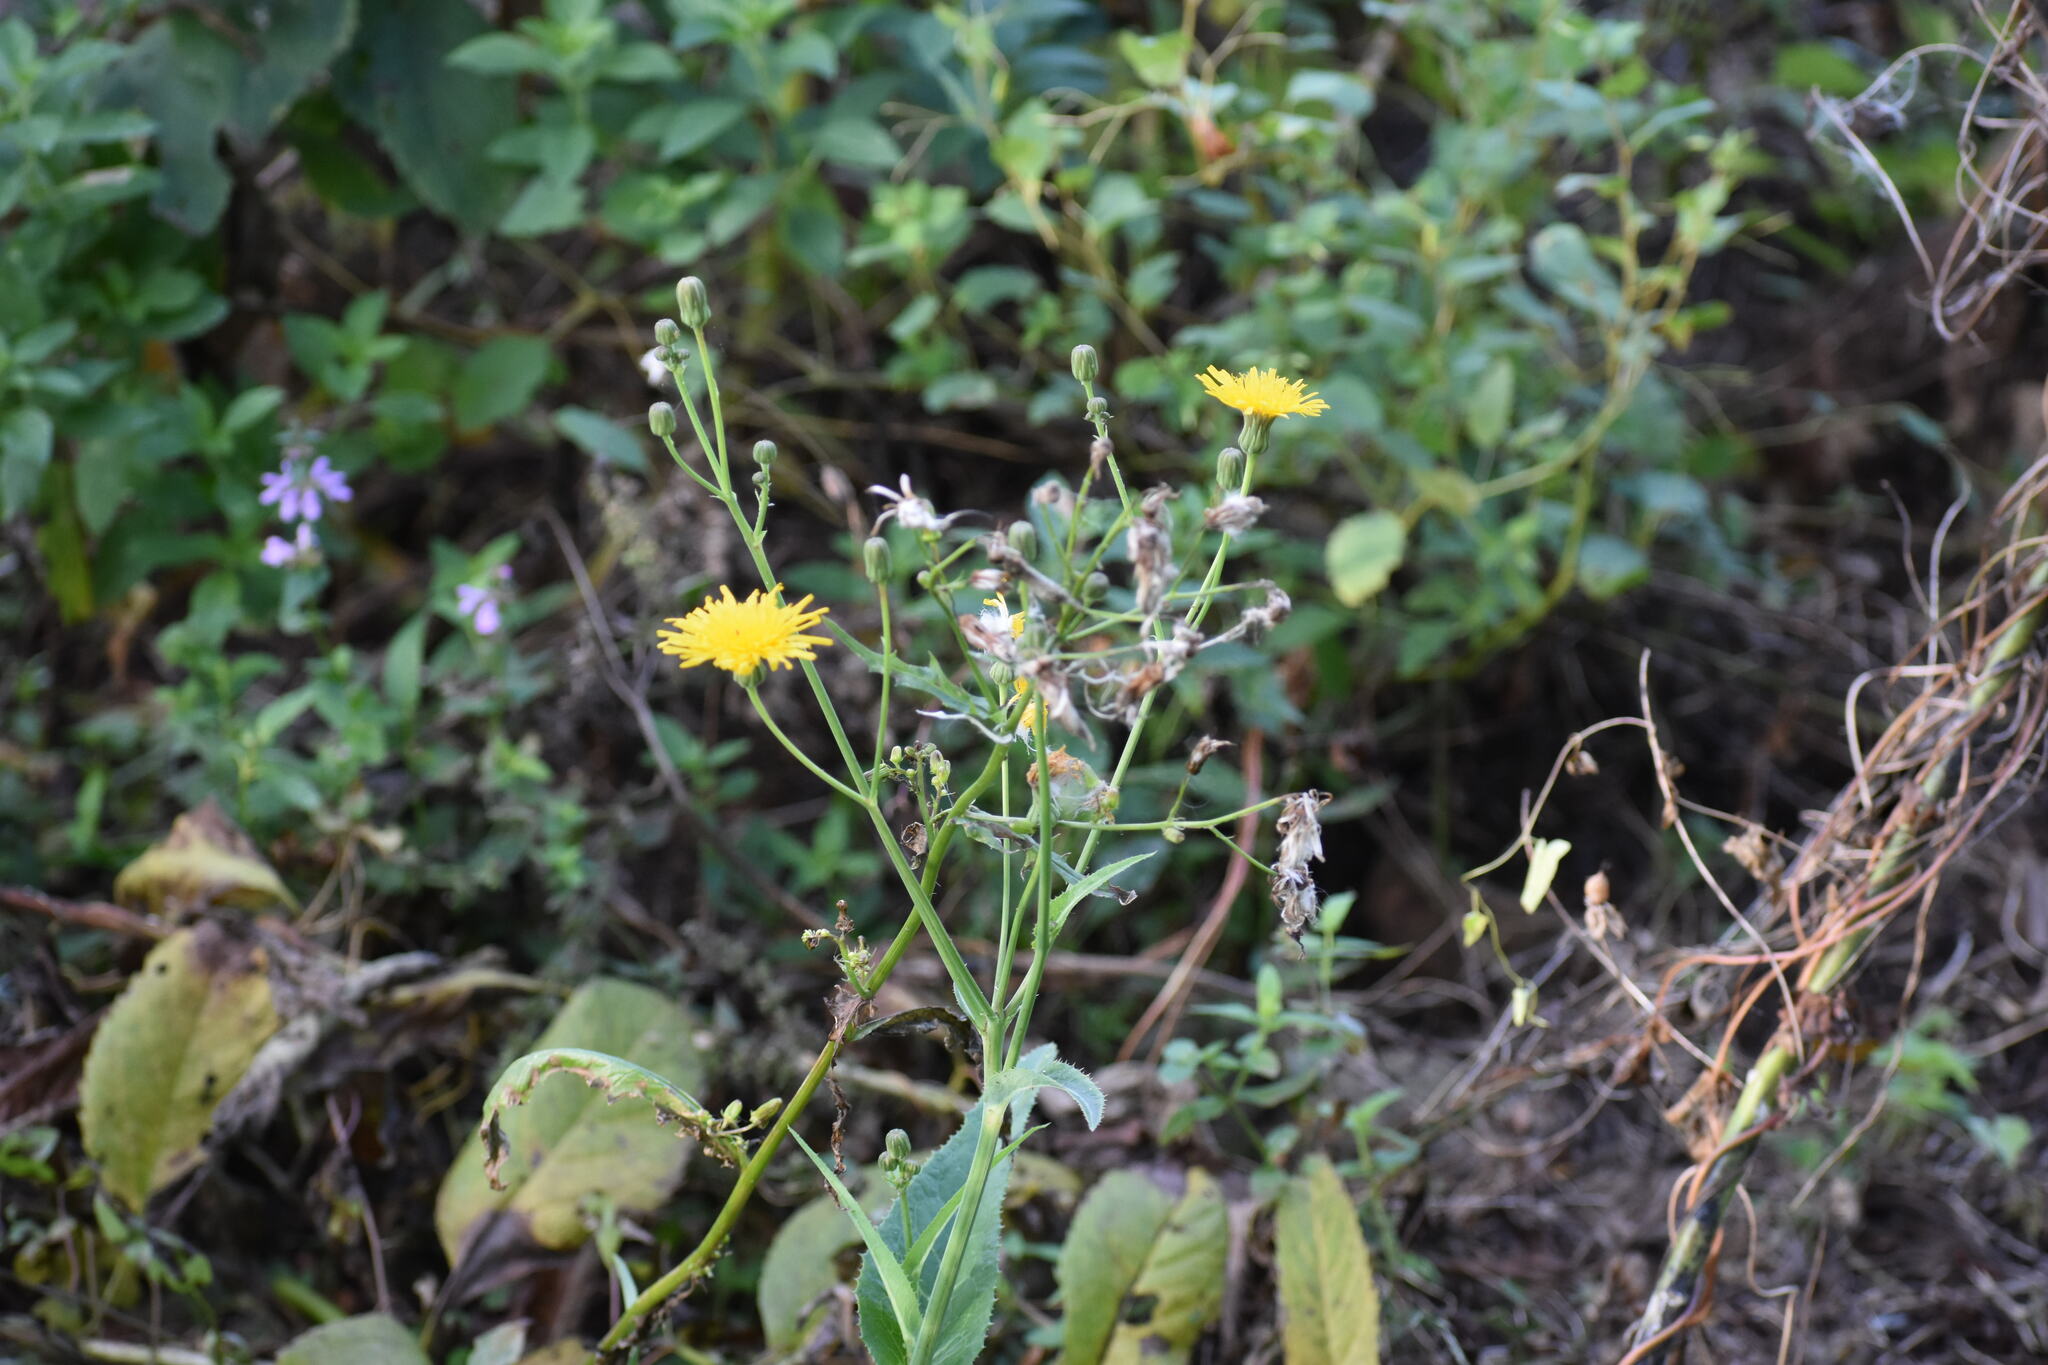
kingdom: Plantae
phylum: Tracheophyta
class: Magnoliopsida
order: Asterales
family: Asteraceae
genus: Sonchus
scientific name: Sonchus arvensis
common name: Perennial sow-thistle
